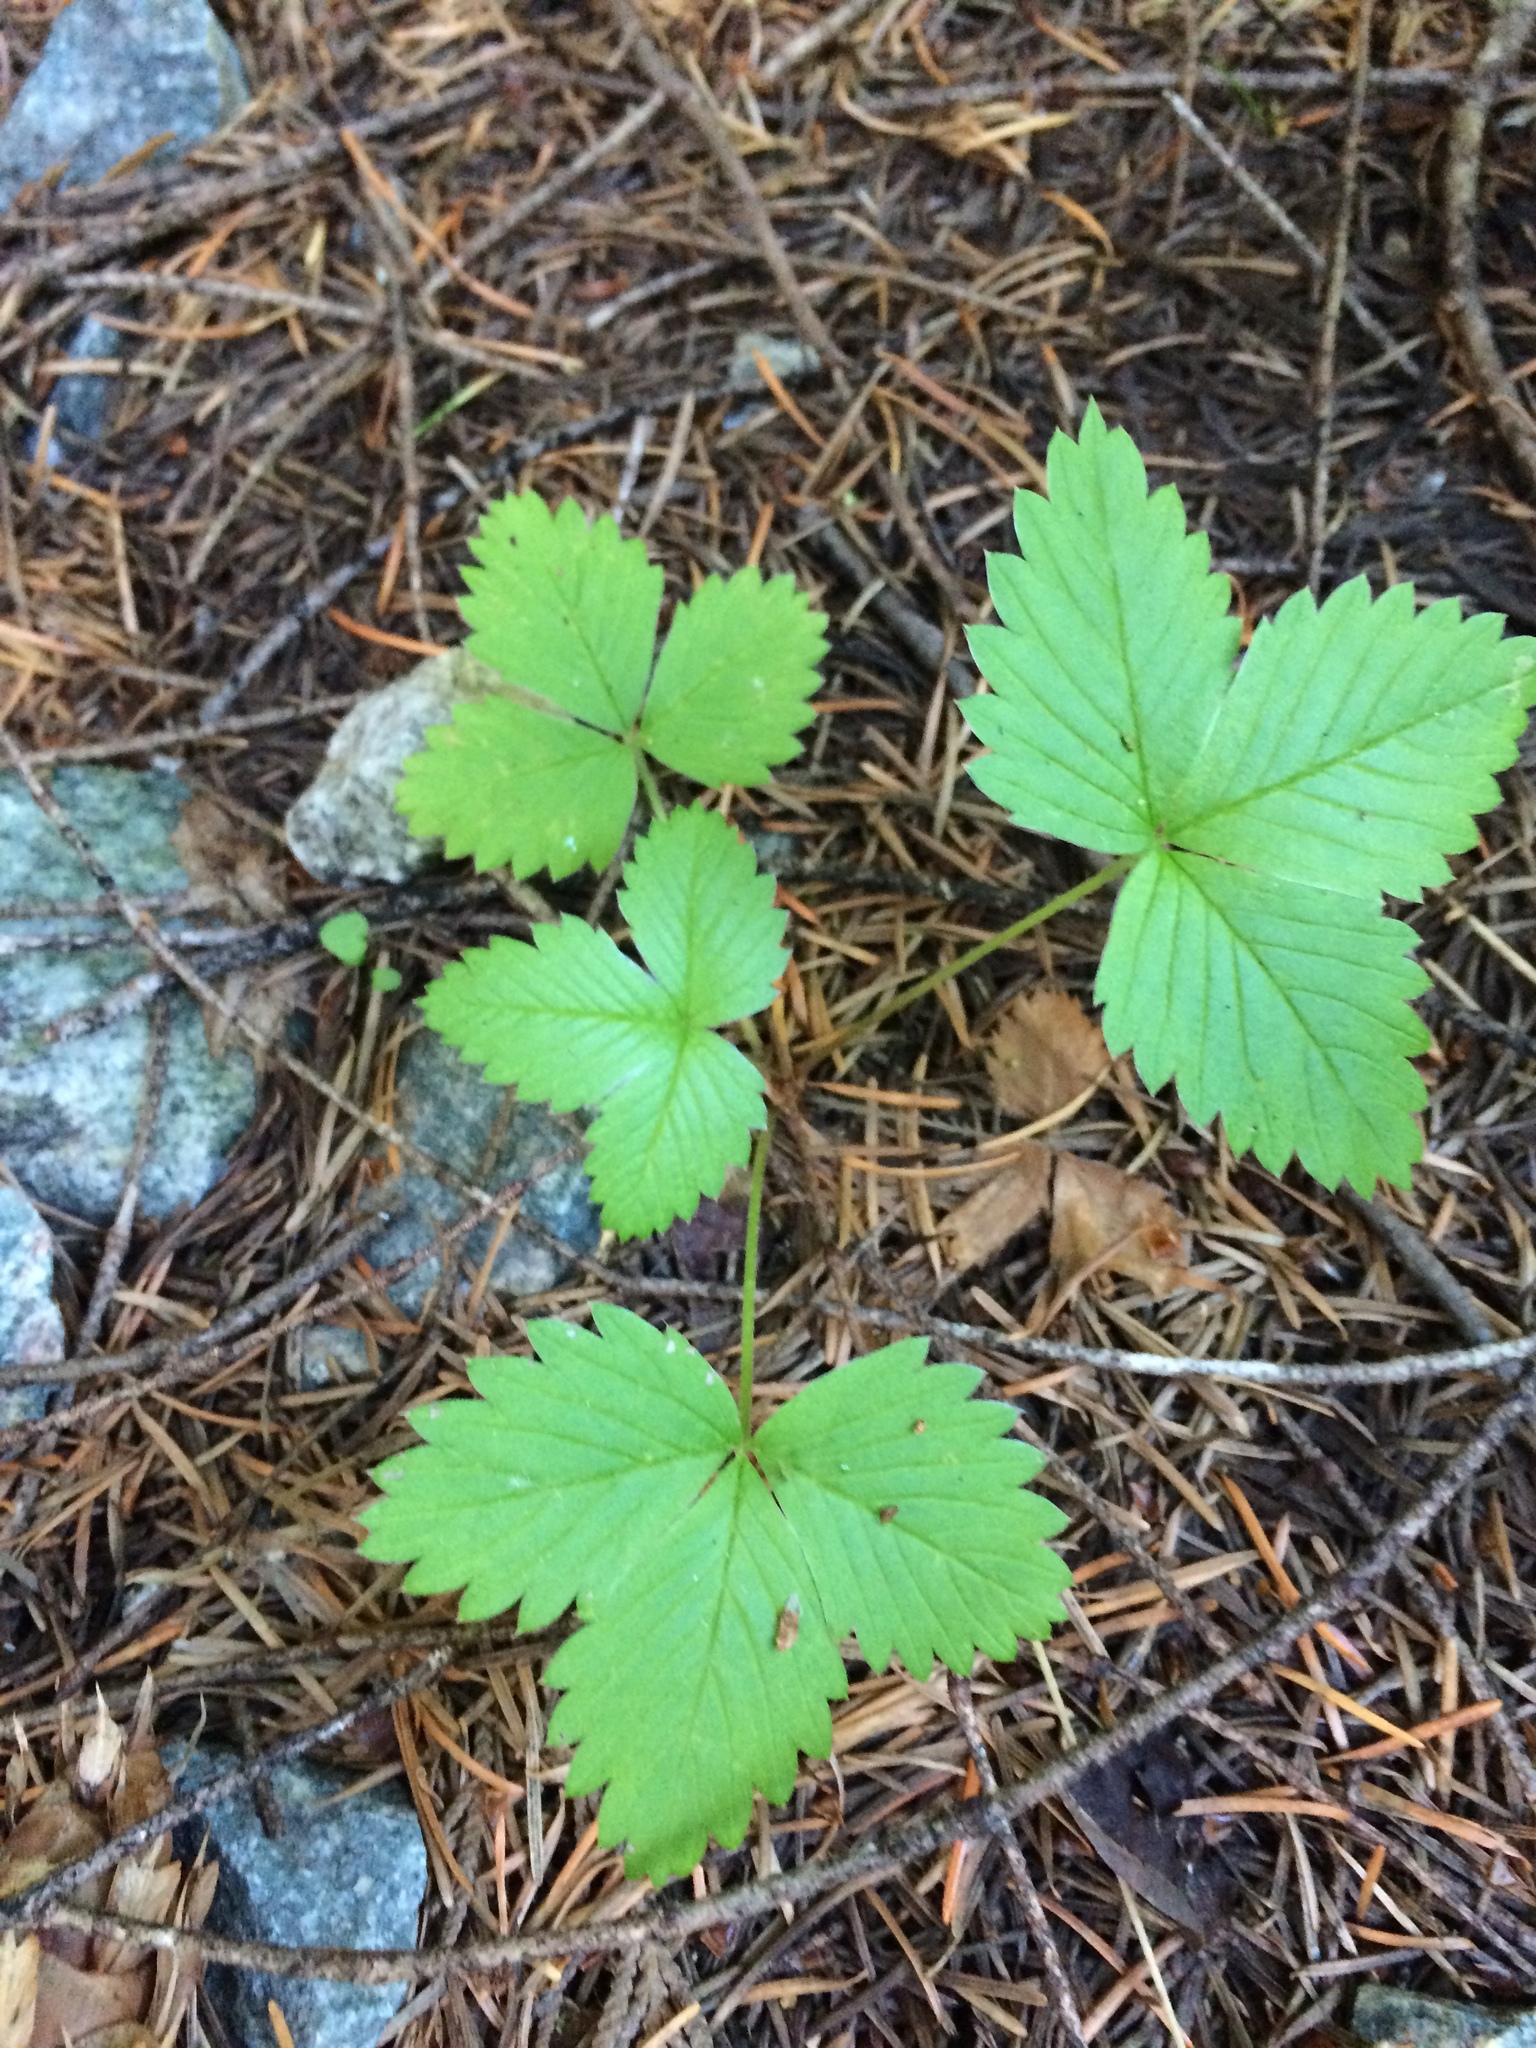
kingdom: Plantae
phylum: Tracheophyta
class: Magnoliopsida
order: Rosales
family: Rosaceae
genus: Fragaria
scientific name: Fragaria vesca
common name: Wild strawberry
